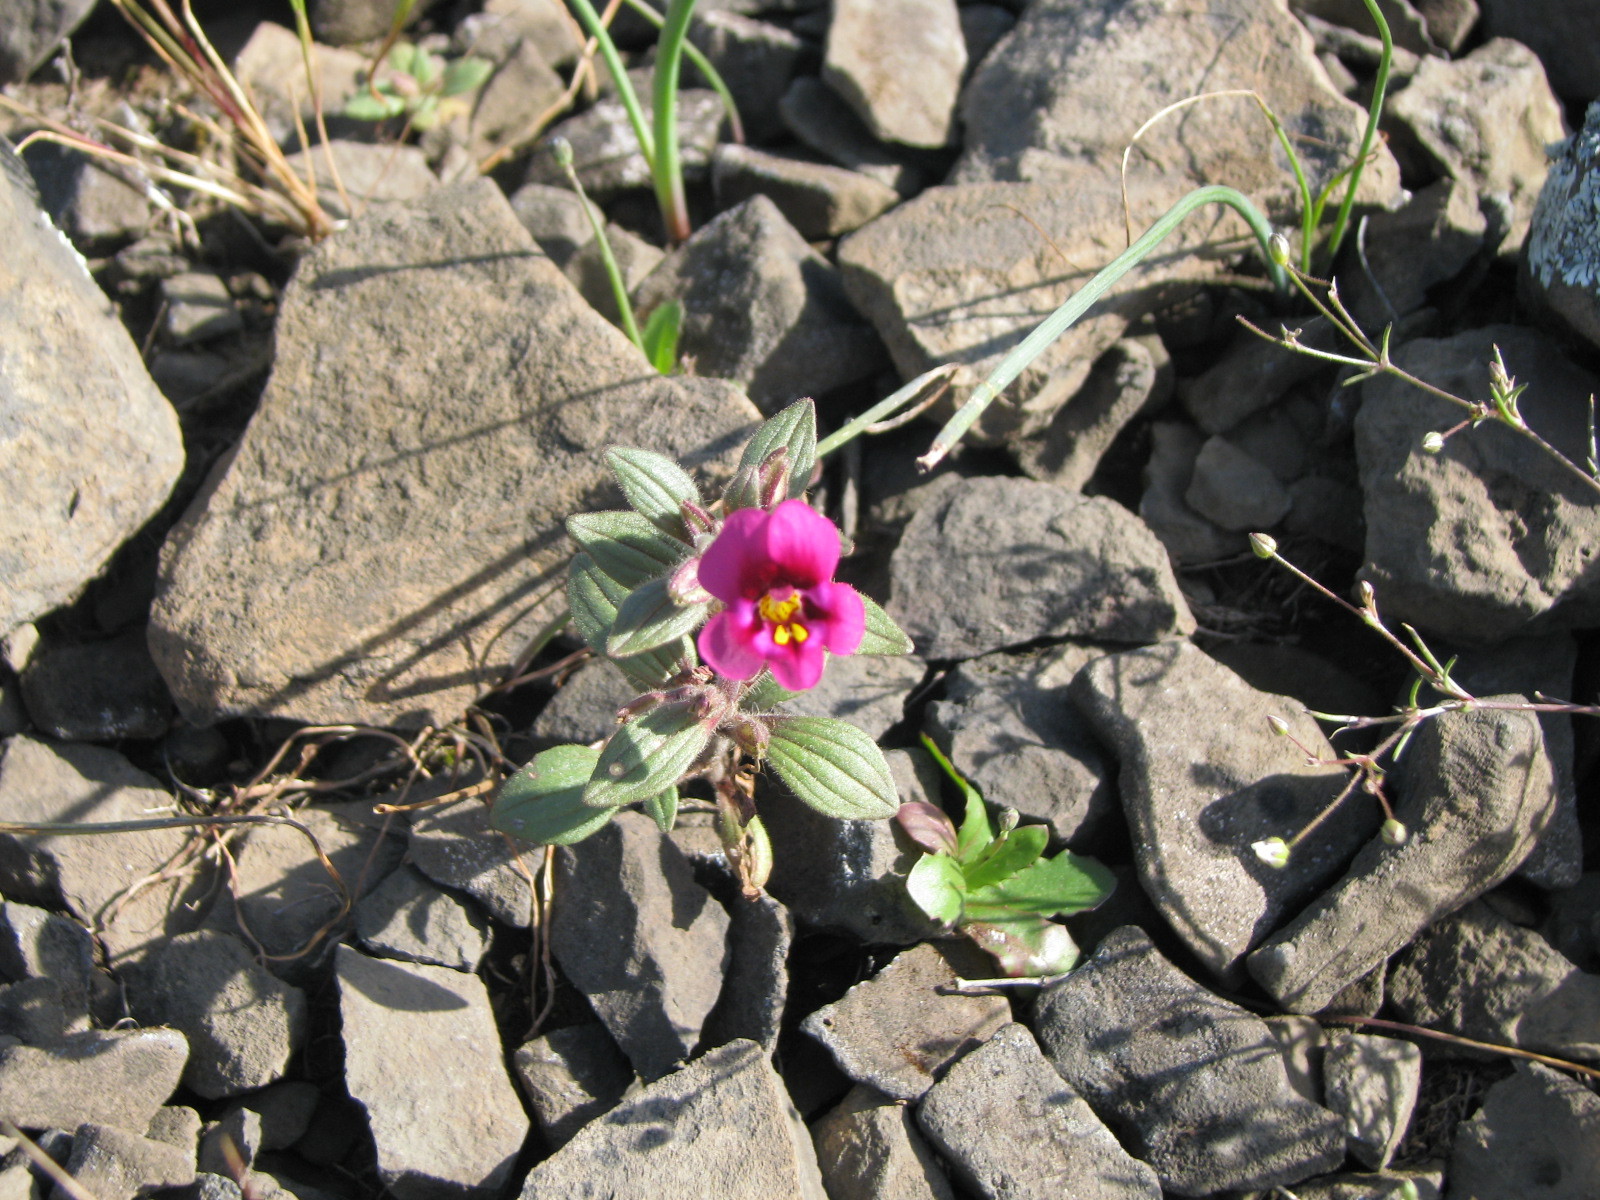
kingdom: Plantae
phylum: Tracheophyta
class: Magnoliopsida
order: Lamiales
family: Phrymaceae
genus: Diplacus
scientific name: Diplacus kelloggii
